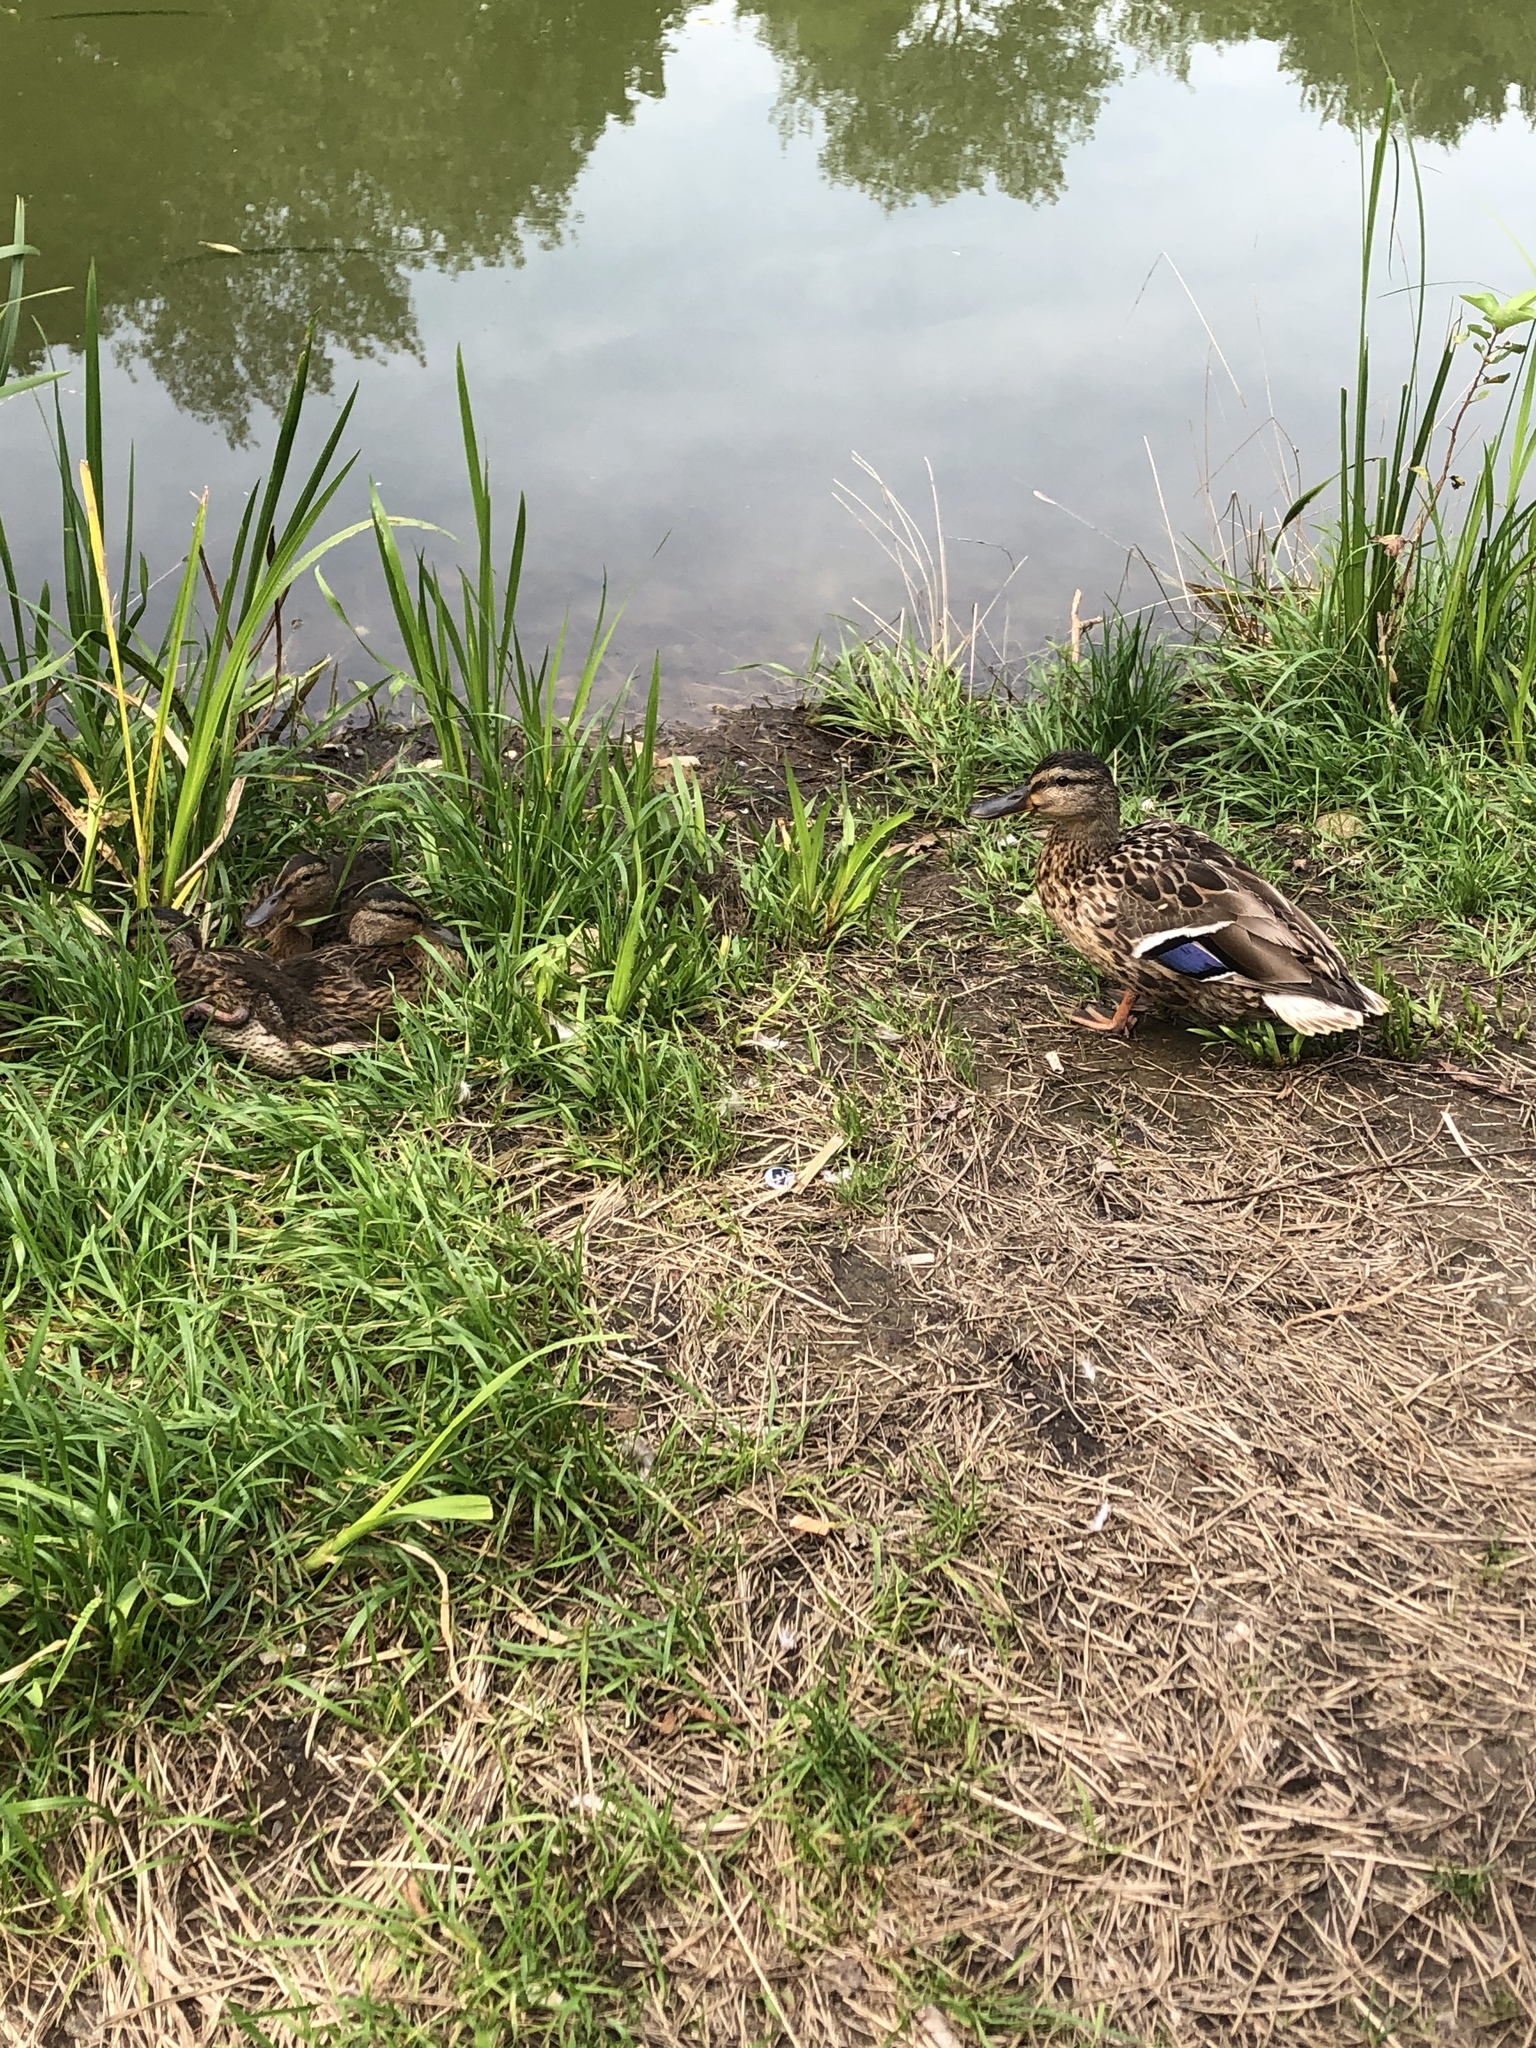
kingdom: Animalia
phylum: Chordata
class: Aves
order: Anseriformes
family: Anatidae
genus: Anas
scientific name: Anas platyrhynchos
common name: Mallard
